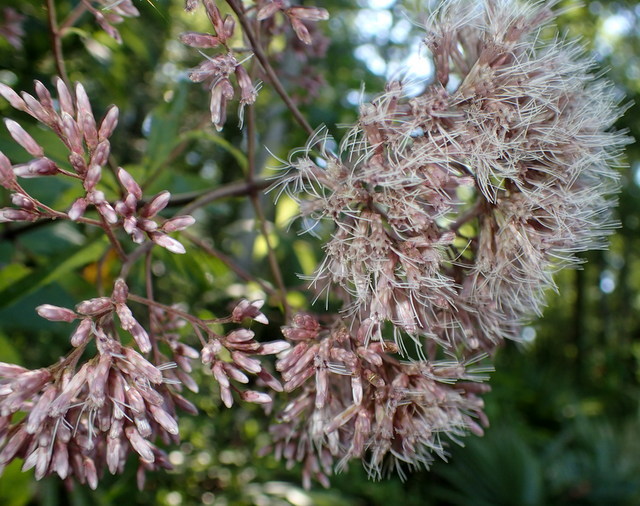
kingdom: Plantae
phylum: Tracheophyta
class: Magnoliopsida
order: Asterales
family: Asteraceae
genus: Eutrochium
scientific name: Eutrochium fistulosum
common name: Trumpetweed
